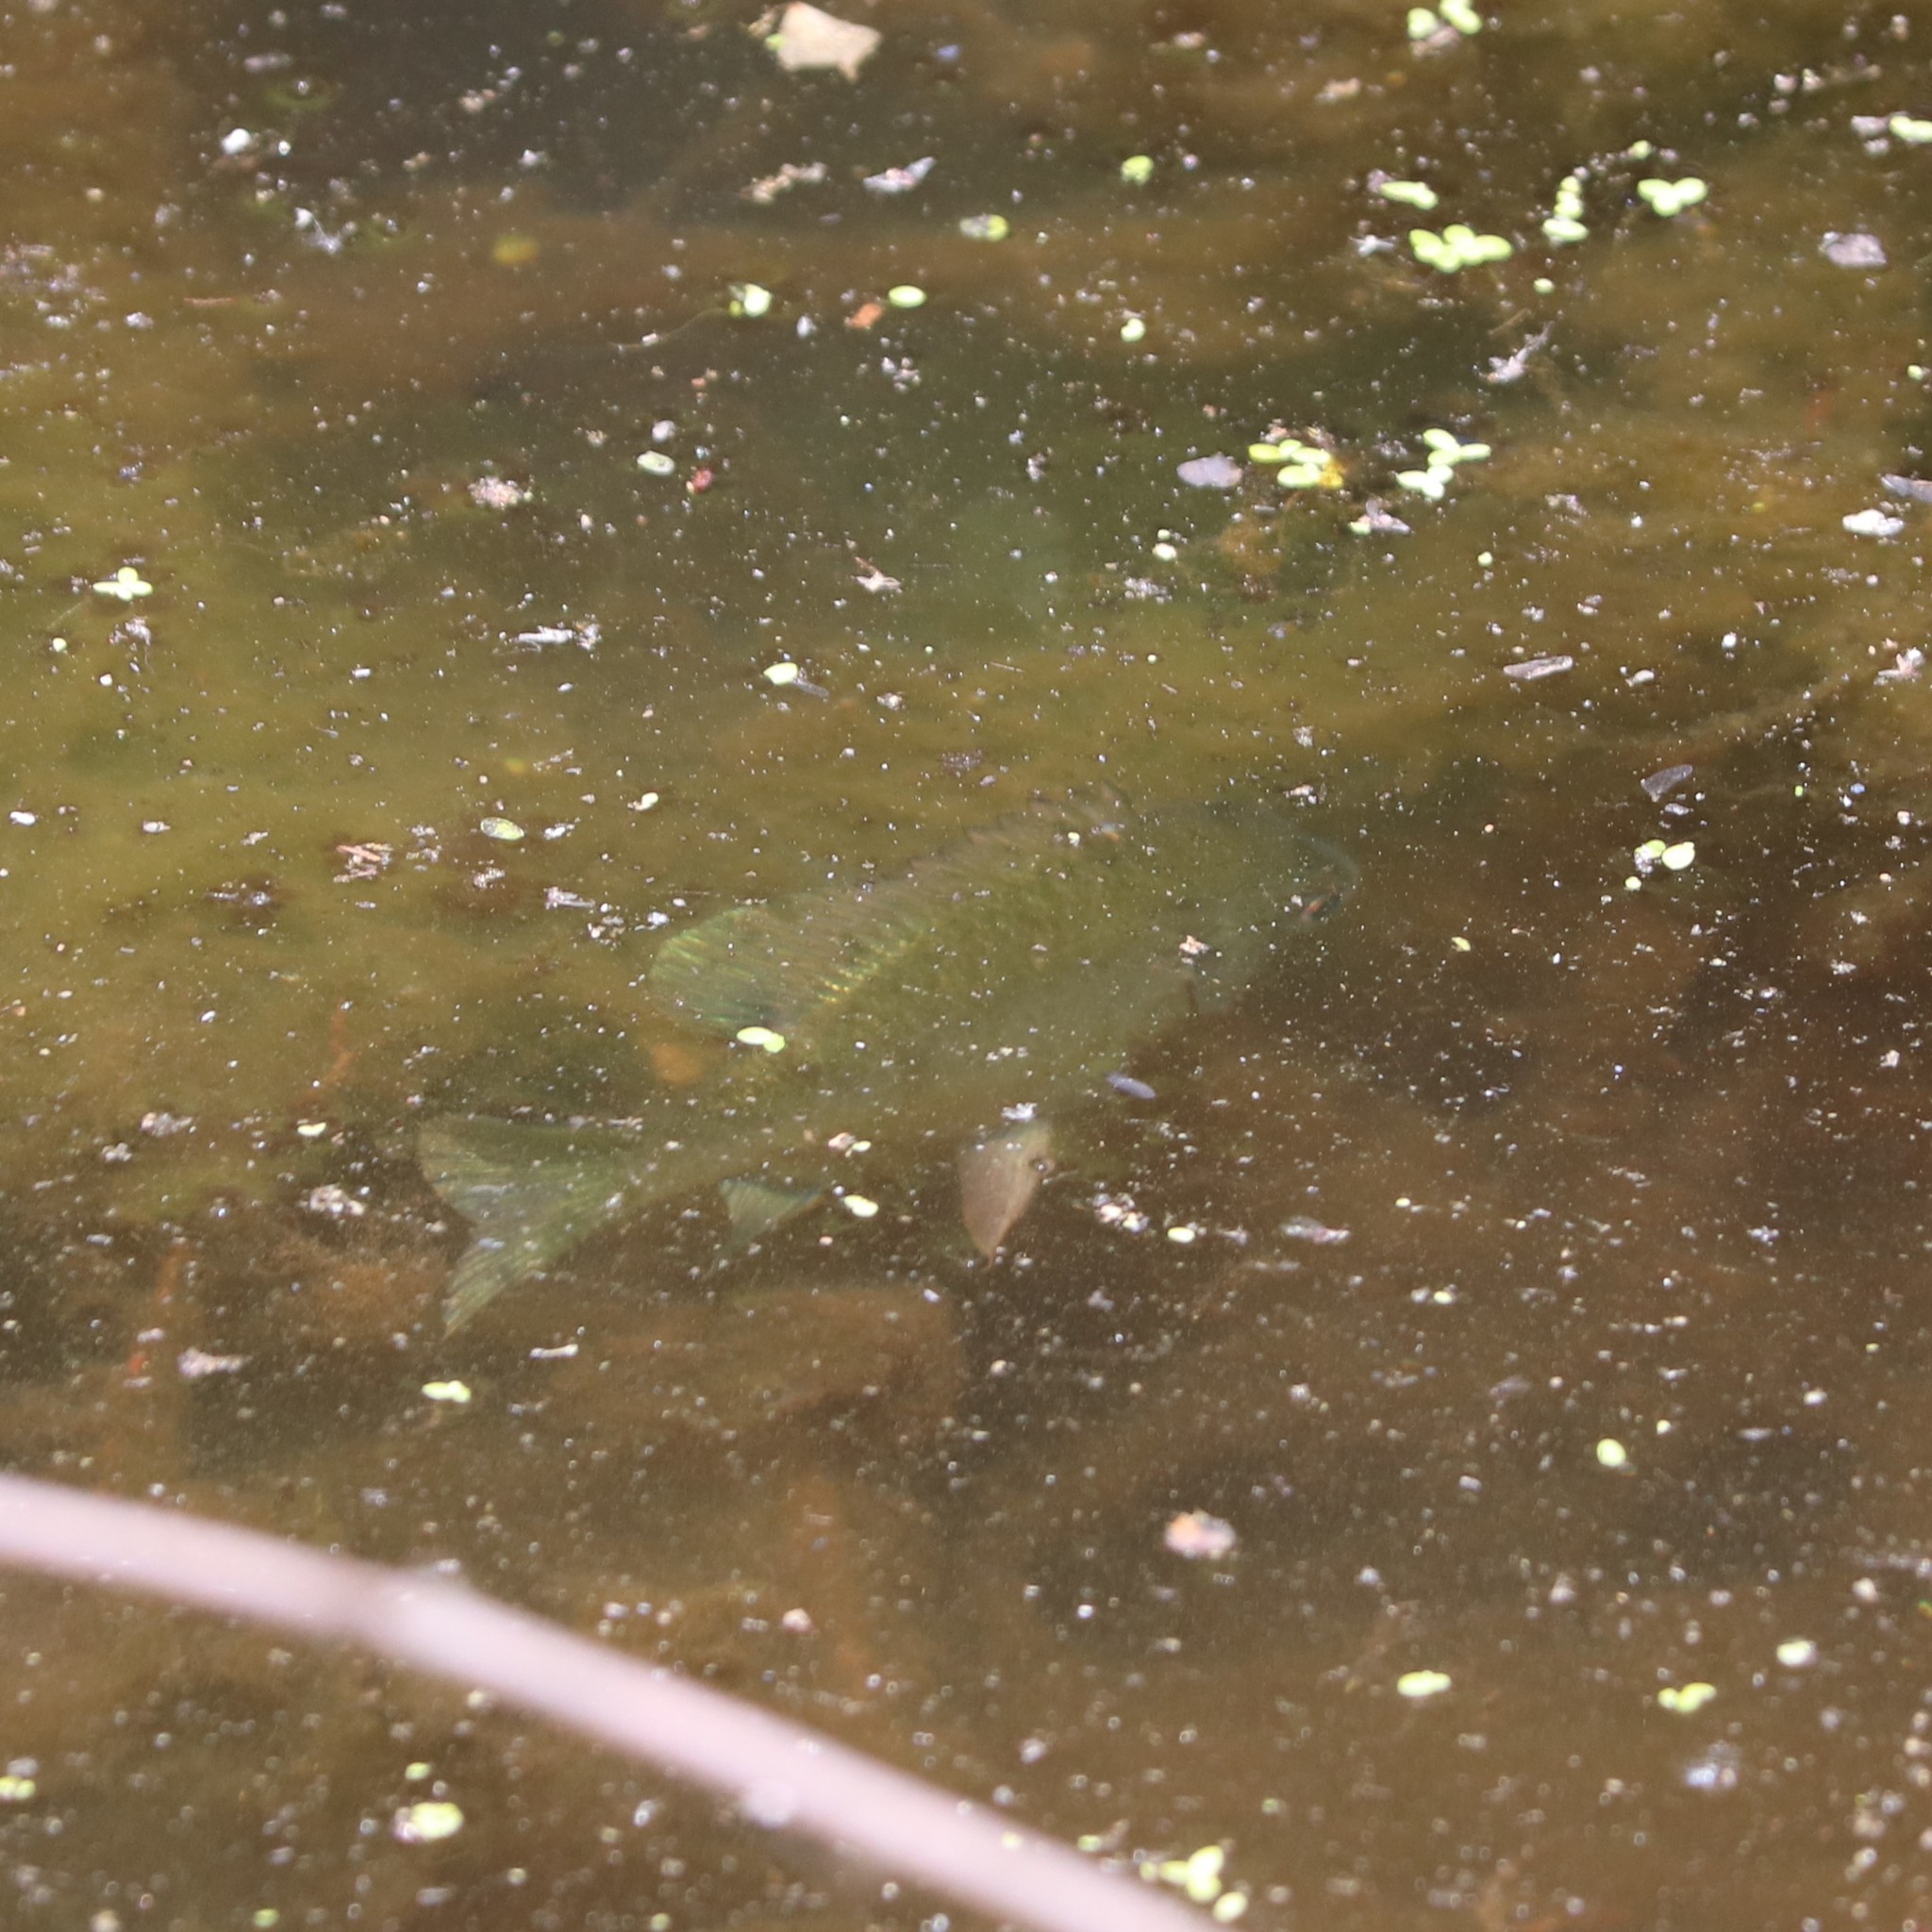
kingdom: Animalia
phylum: Chordata
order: Perciformes
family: Centrarchidae
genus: Lepomis
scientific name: Lepomis macrochirus
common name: Bluegill
